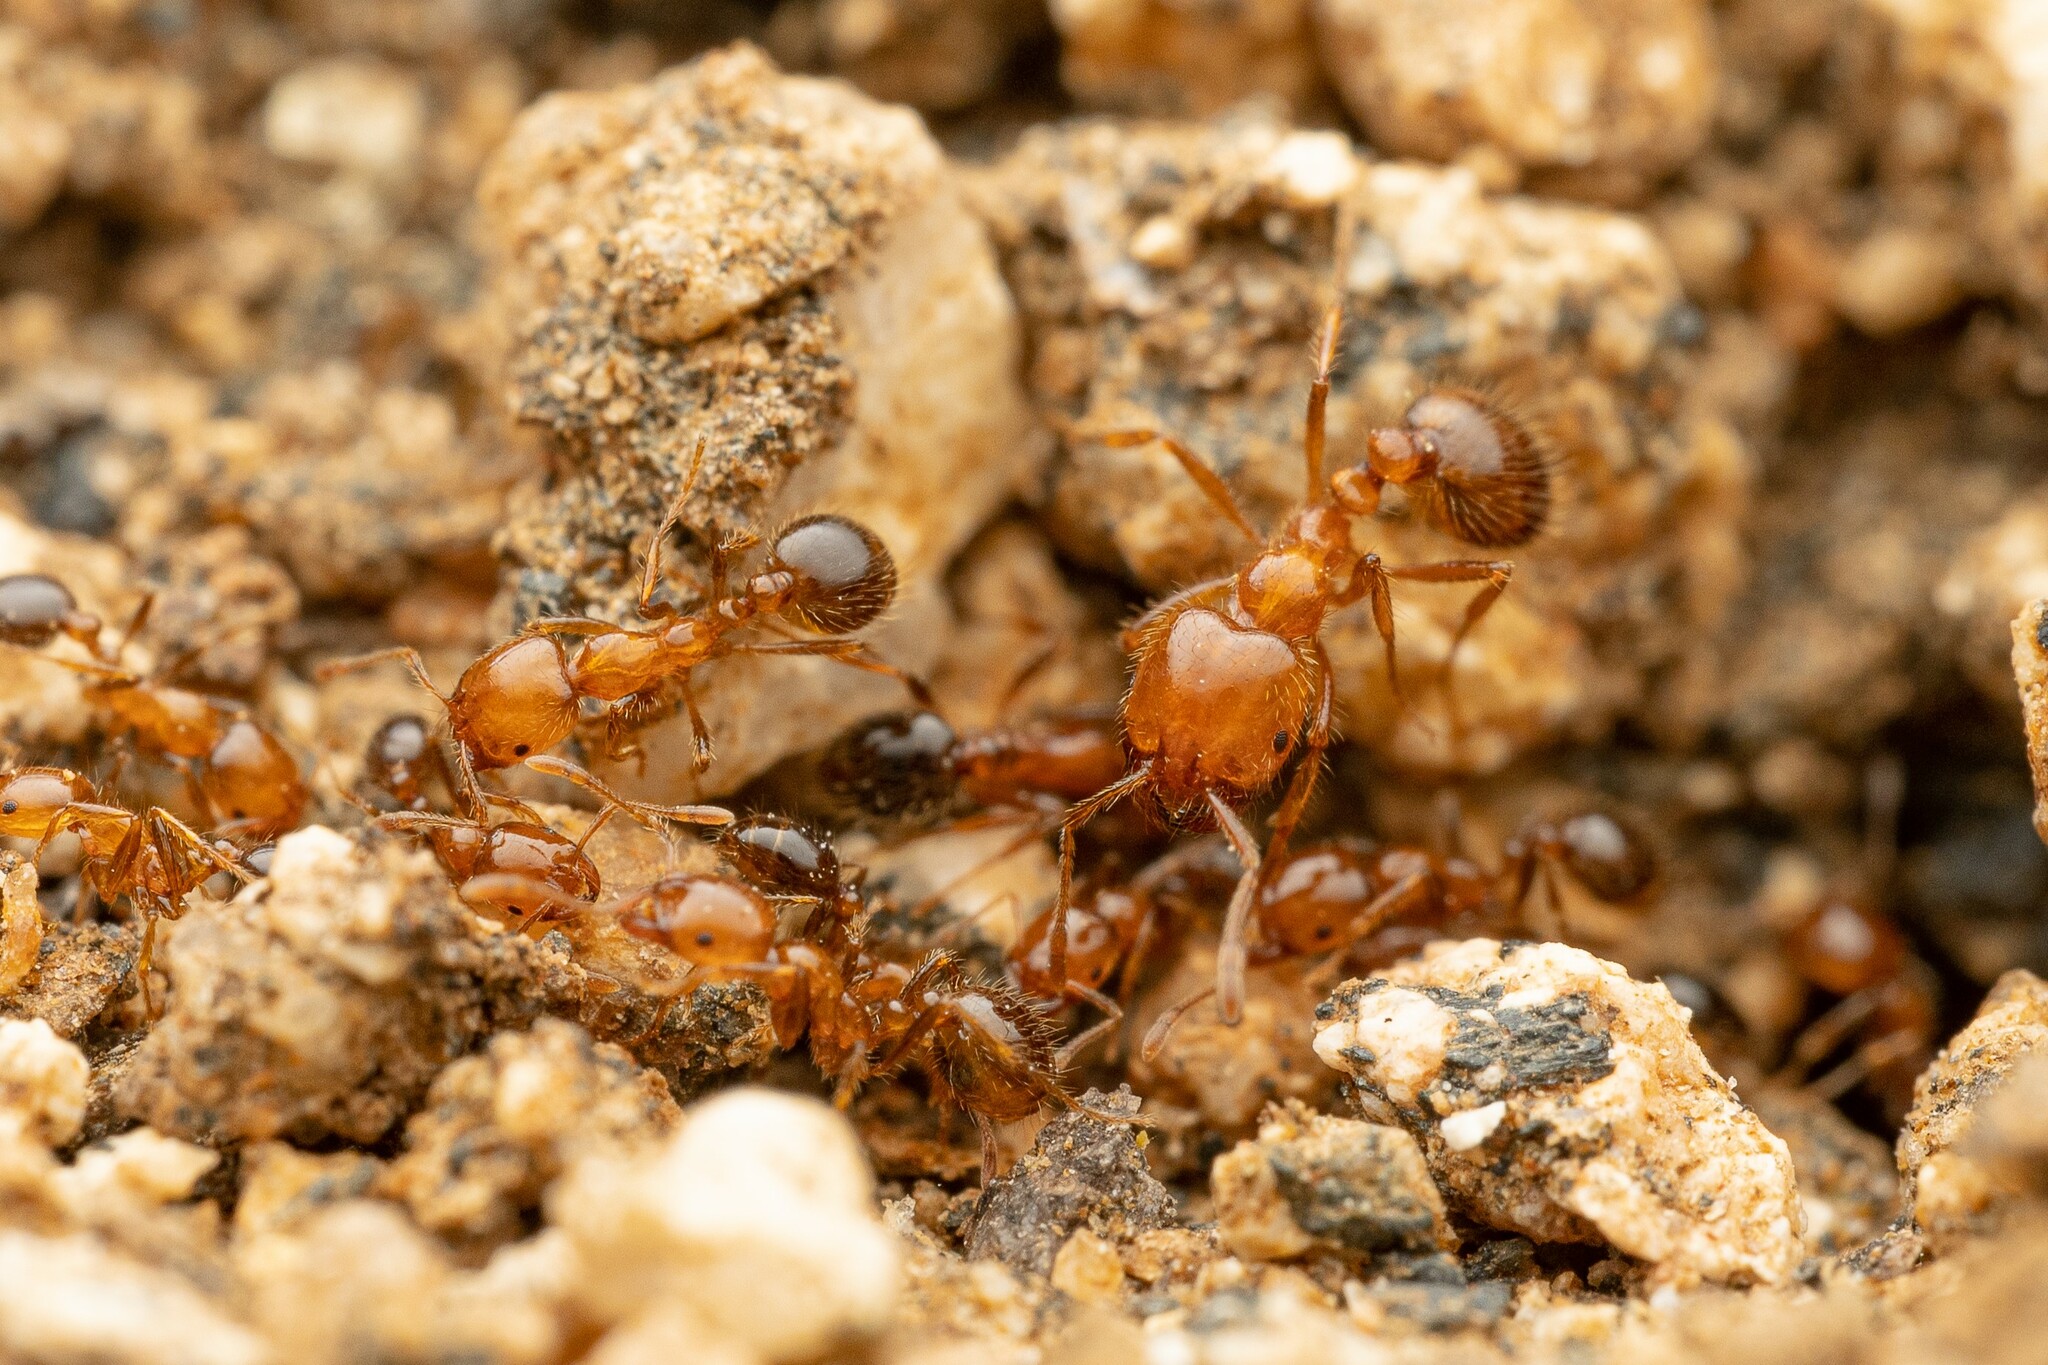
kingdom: Animalia
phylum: Arthropoda
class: Insecta
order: Hymenoptera
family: Formicidae
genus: Solenopsis
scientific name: Solenopsis xyloni
